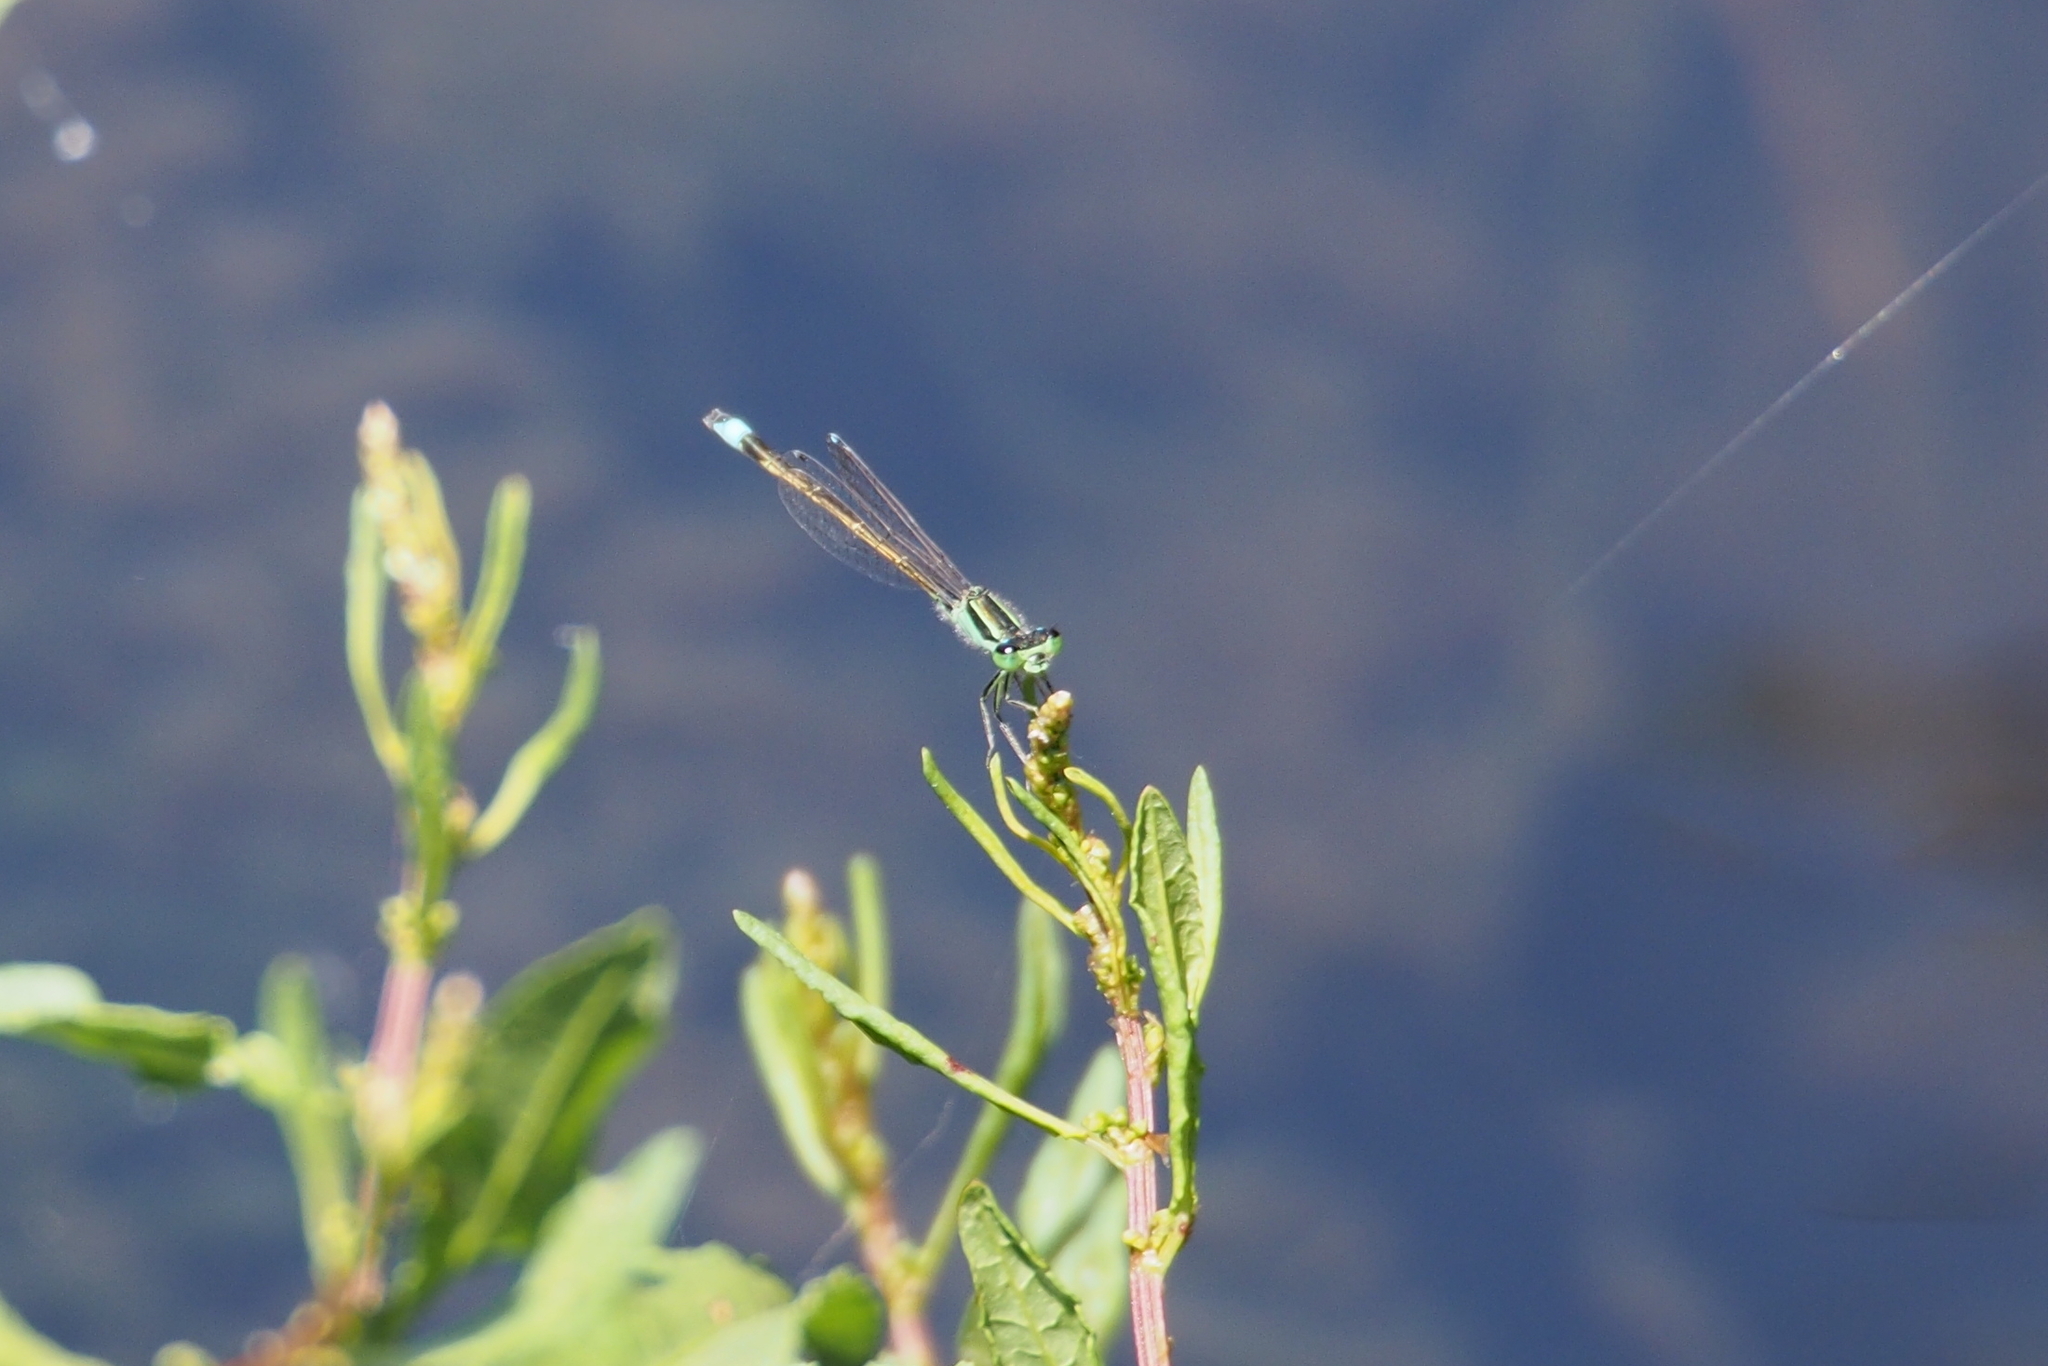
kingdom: Animalia
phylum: Arthropoda
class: Insecta
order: Odonata
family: Coenagrionidae
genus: Ischnura
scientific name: Ischnura senegalensis
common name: Tropical bluetail
